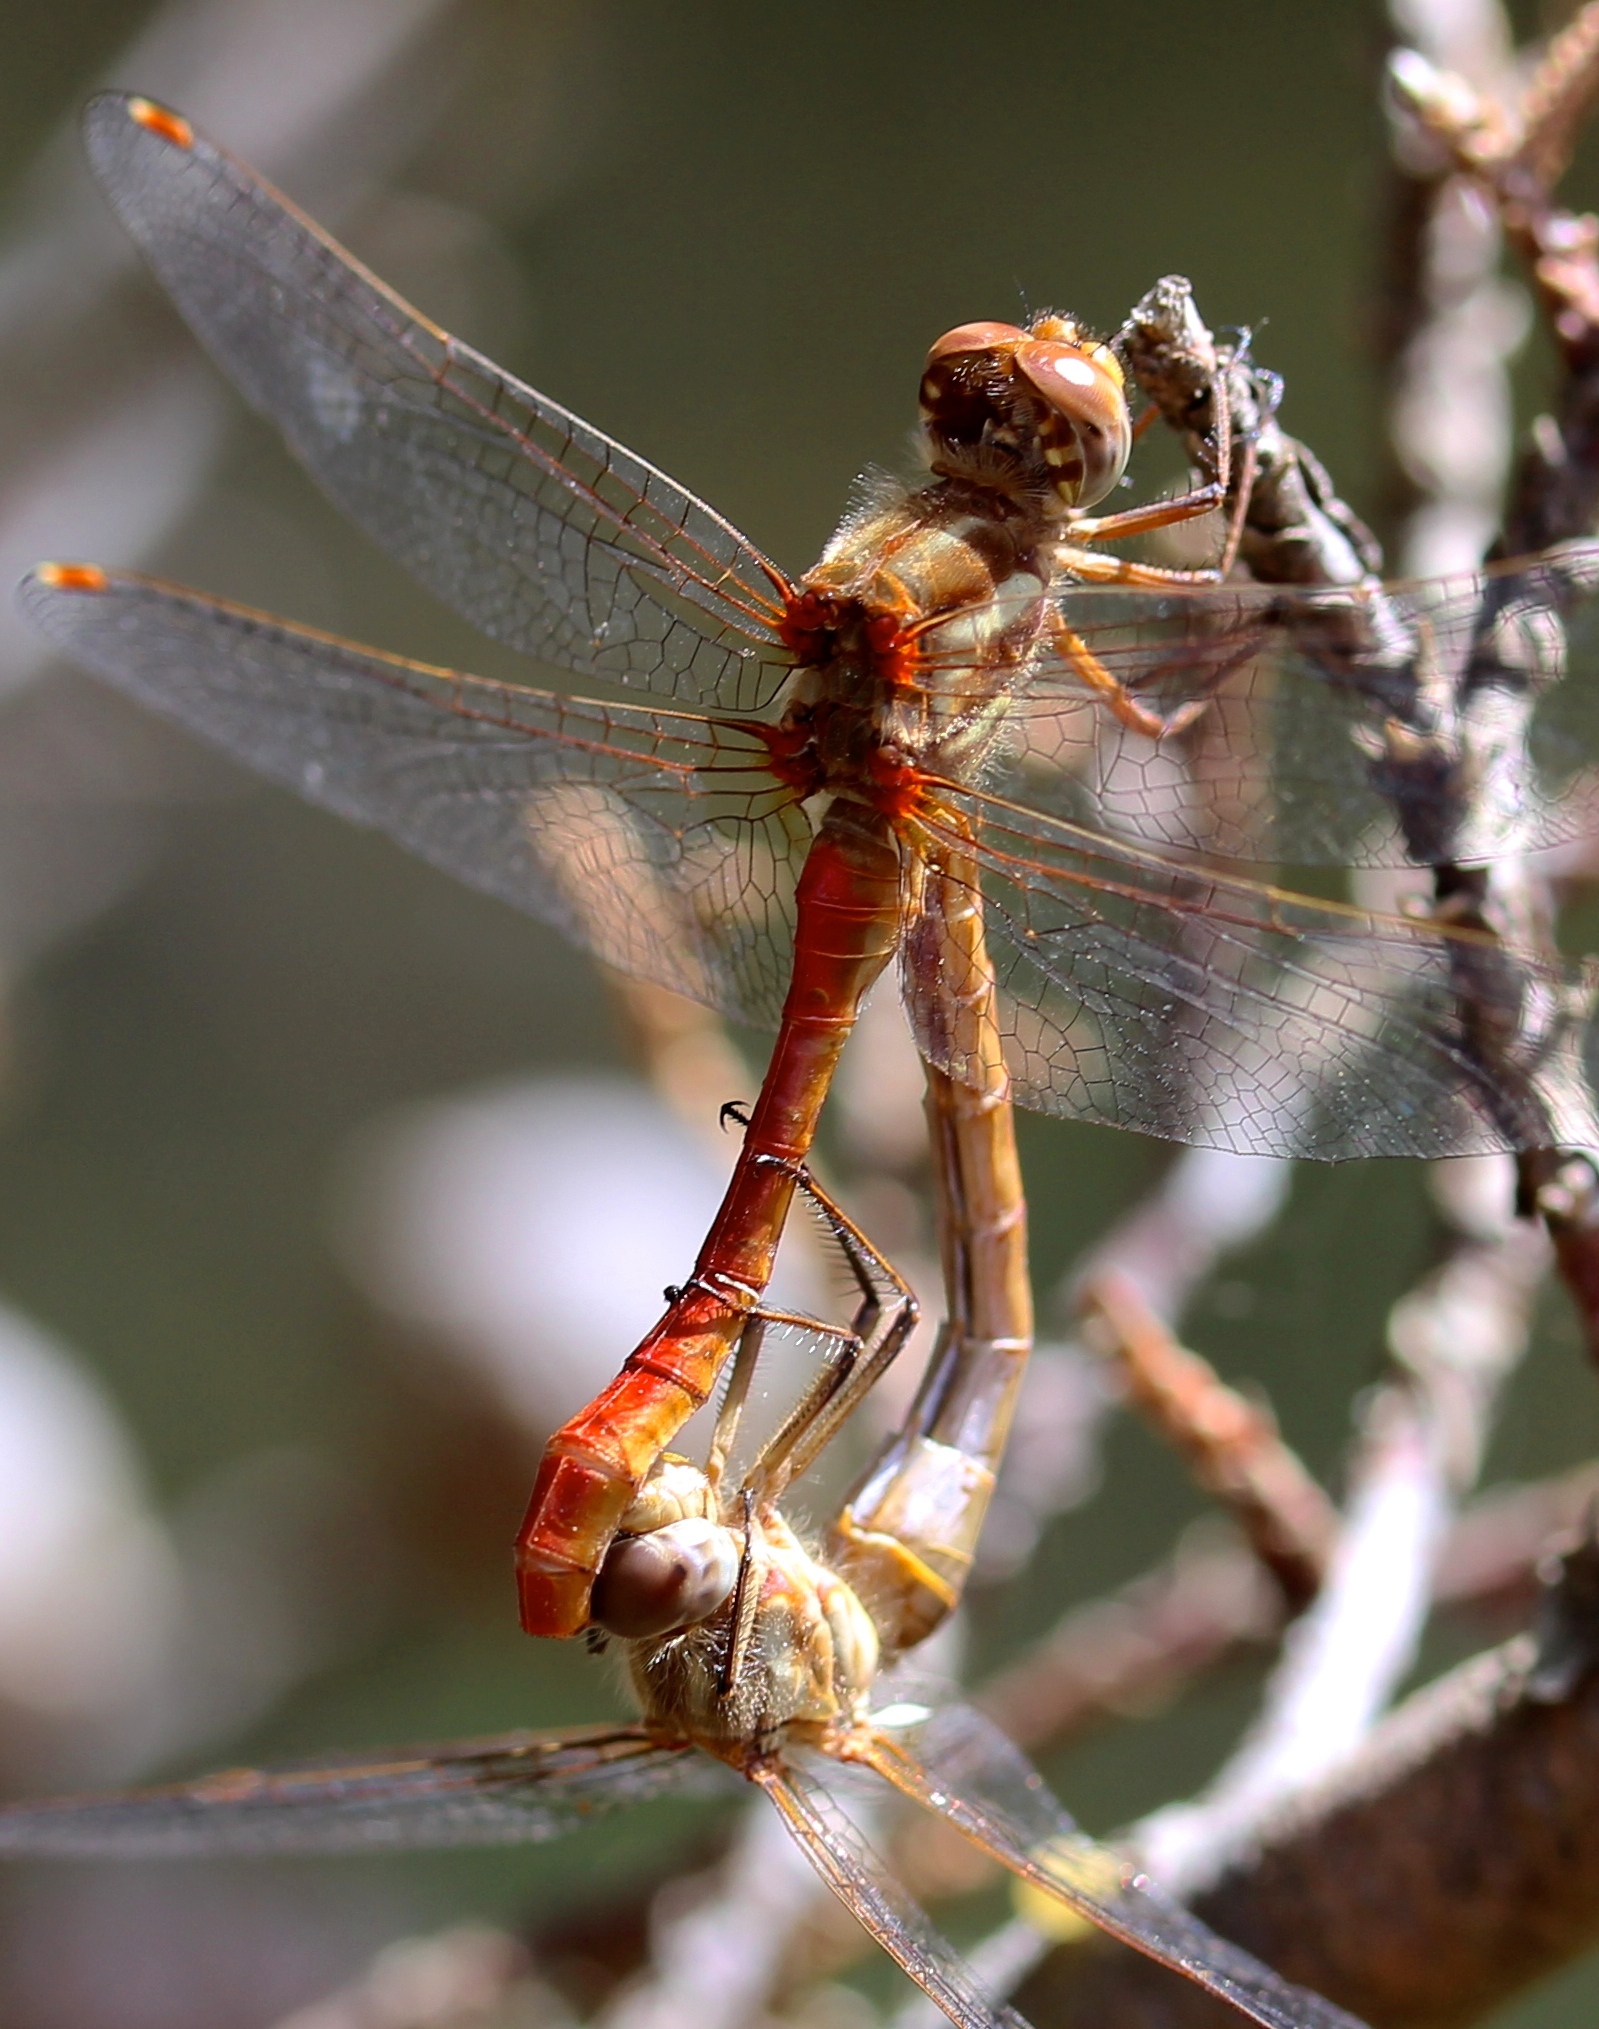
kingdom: Animalia
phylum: Arthropoda
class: Insecta
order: Odonata
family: Libellulidae
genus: Sympetrum
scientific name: Sympetrum pallipes
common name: Striped meadowhawk
